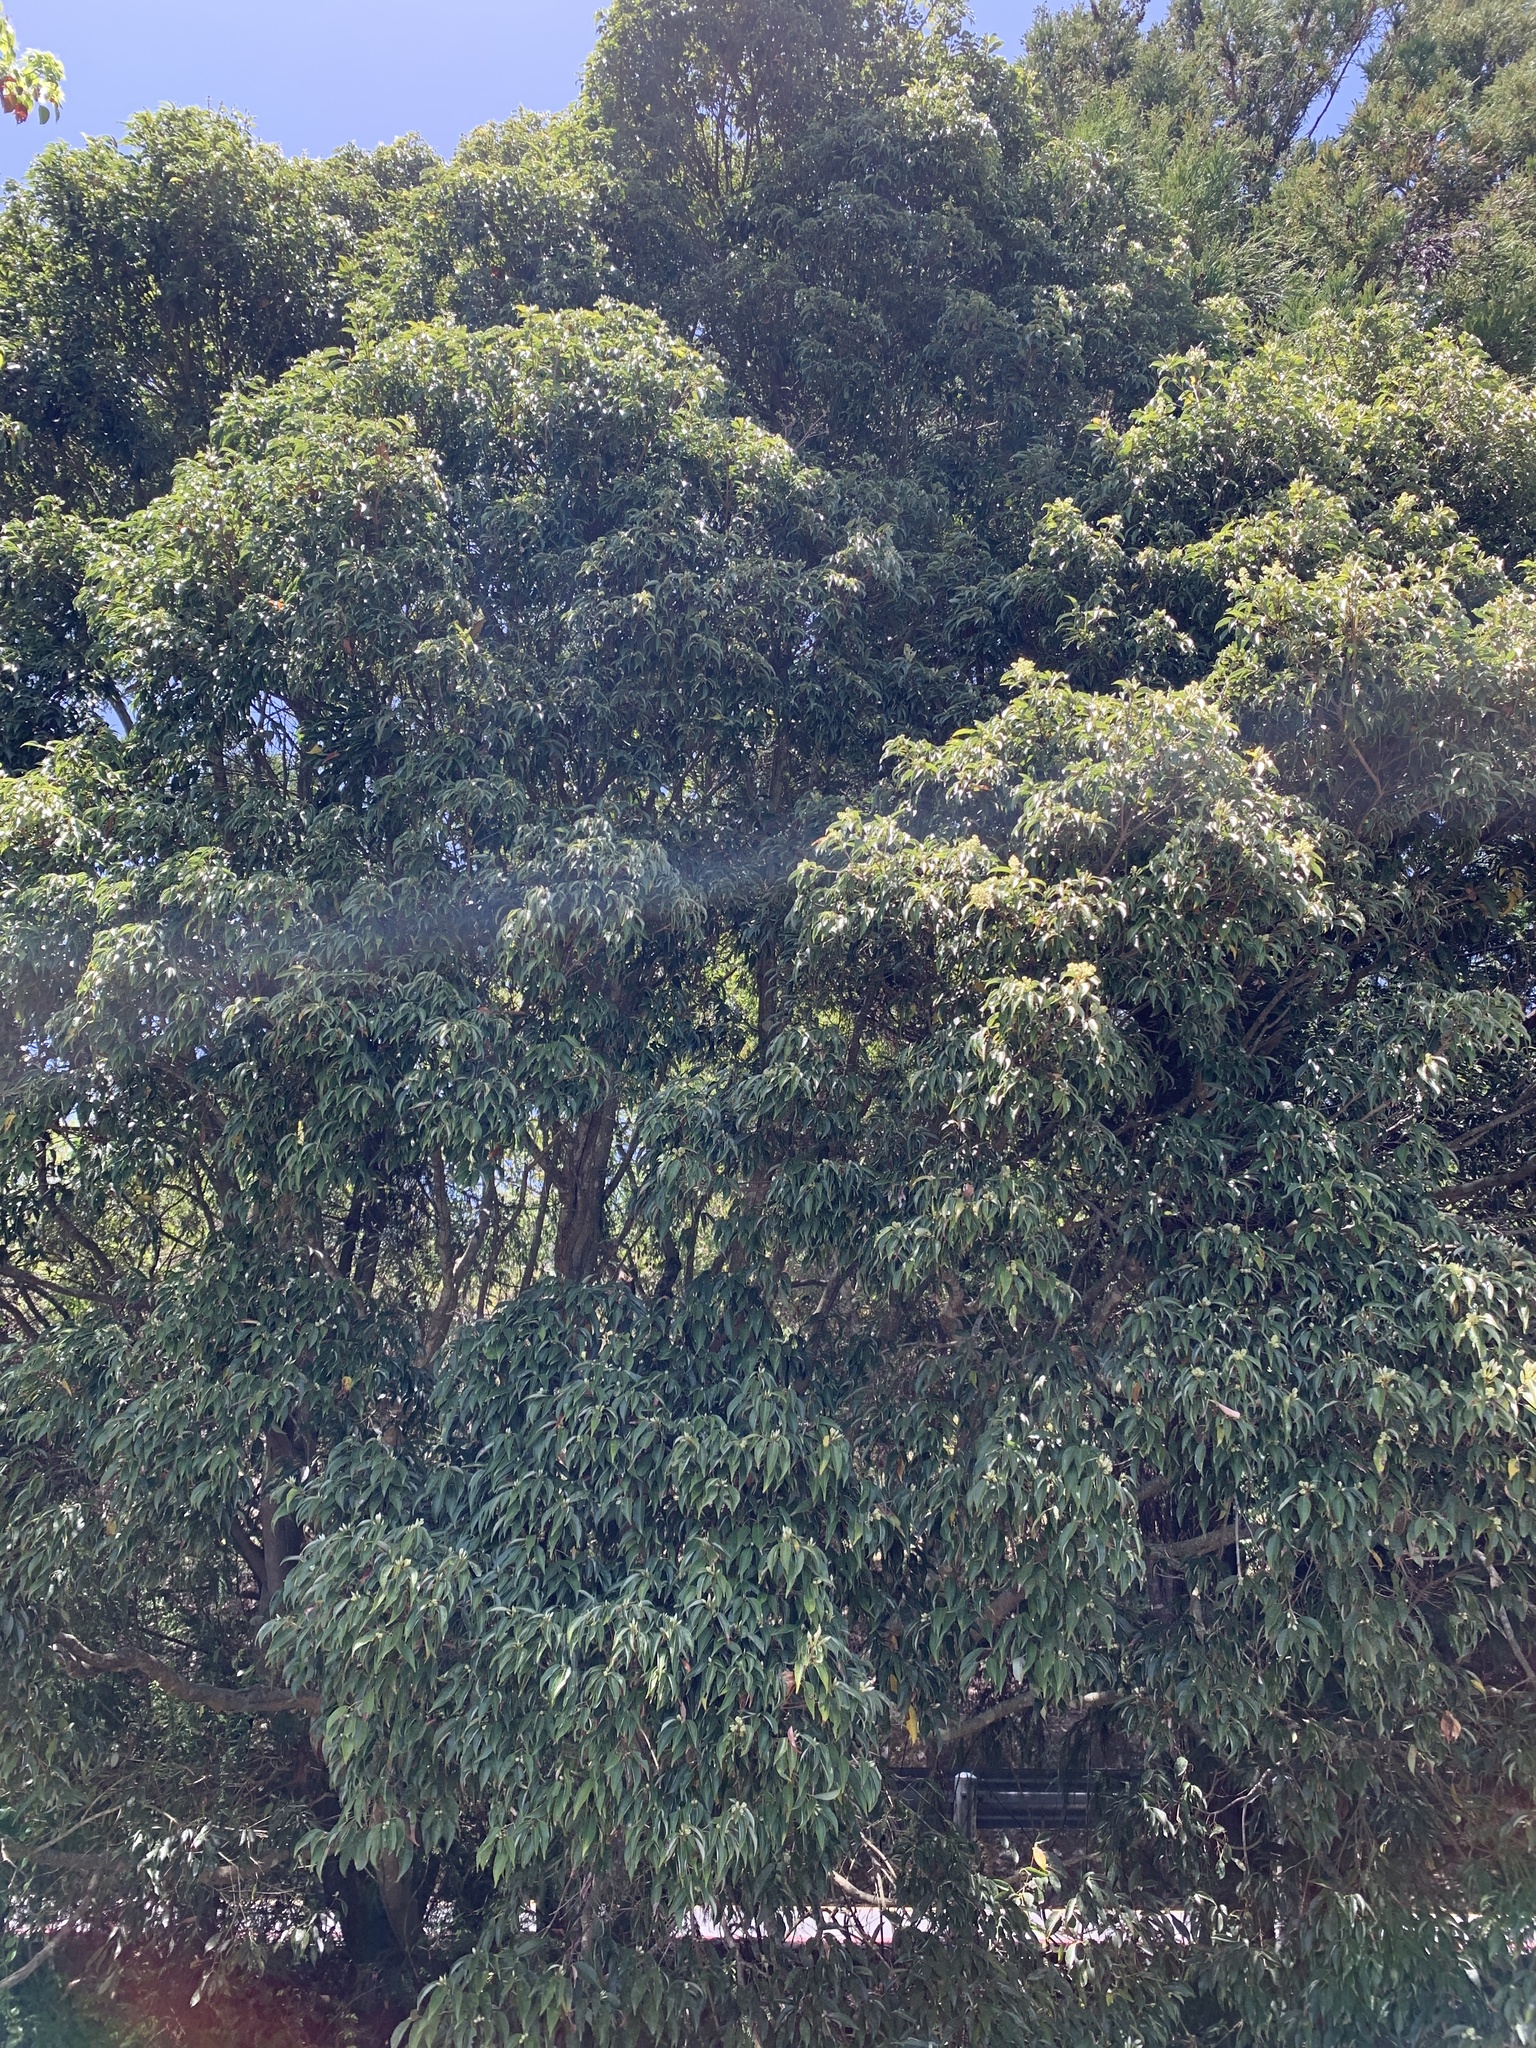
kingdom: Plantae
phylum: Tracheophyta
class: Magnoliopsida
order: Sapindales
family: Sapindaceae
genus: Acer
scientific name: Acer oblongum
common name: Himalayan maple
